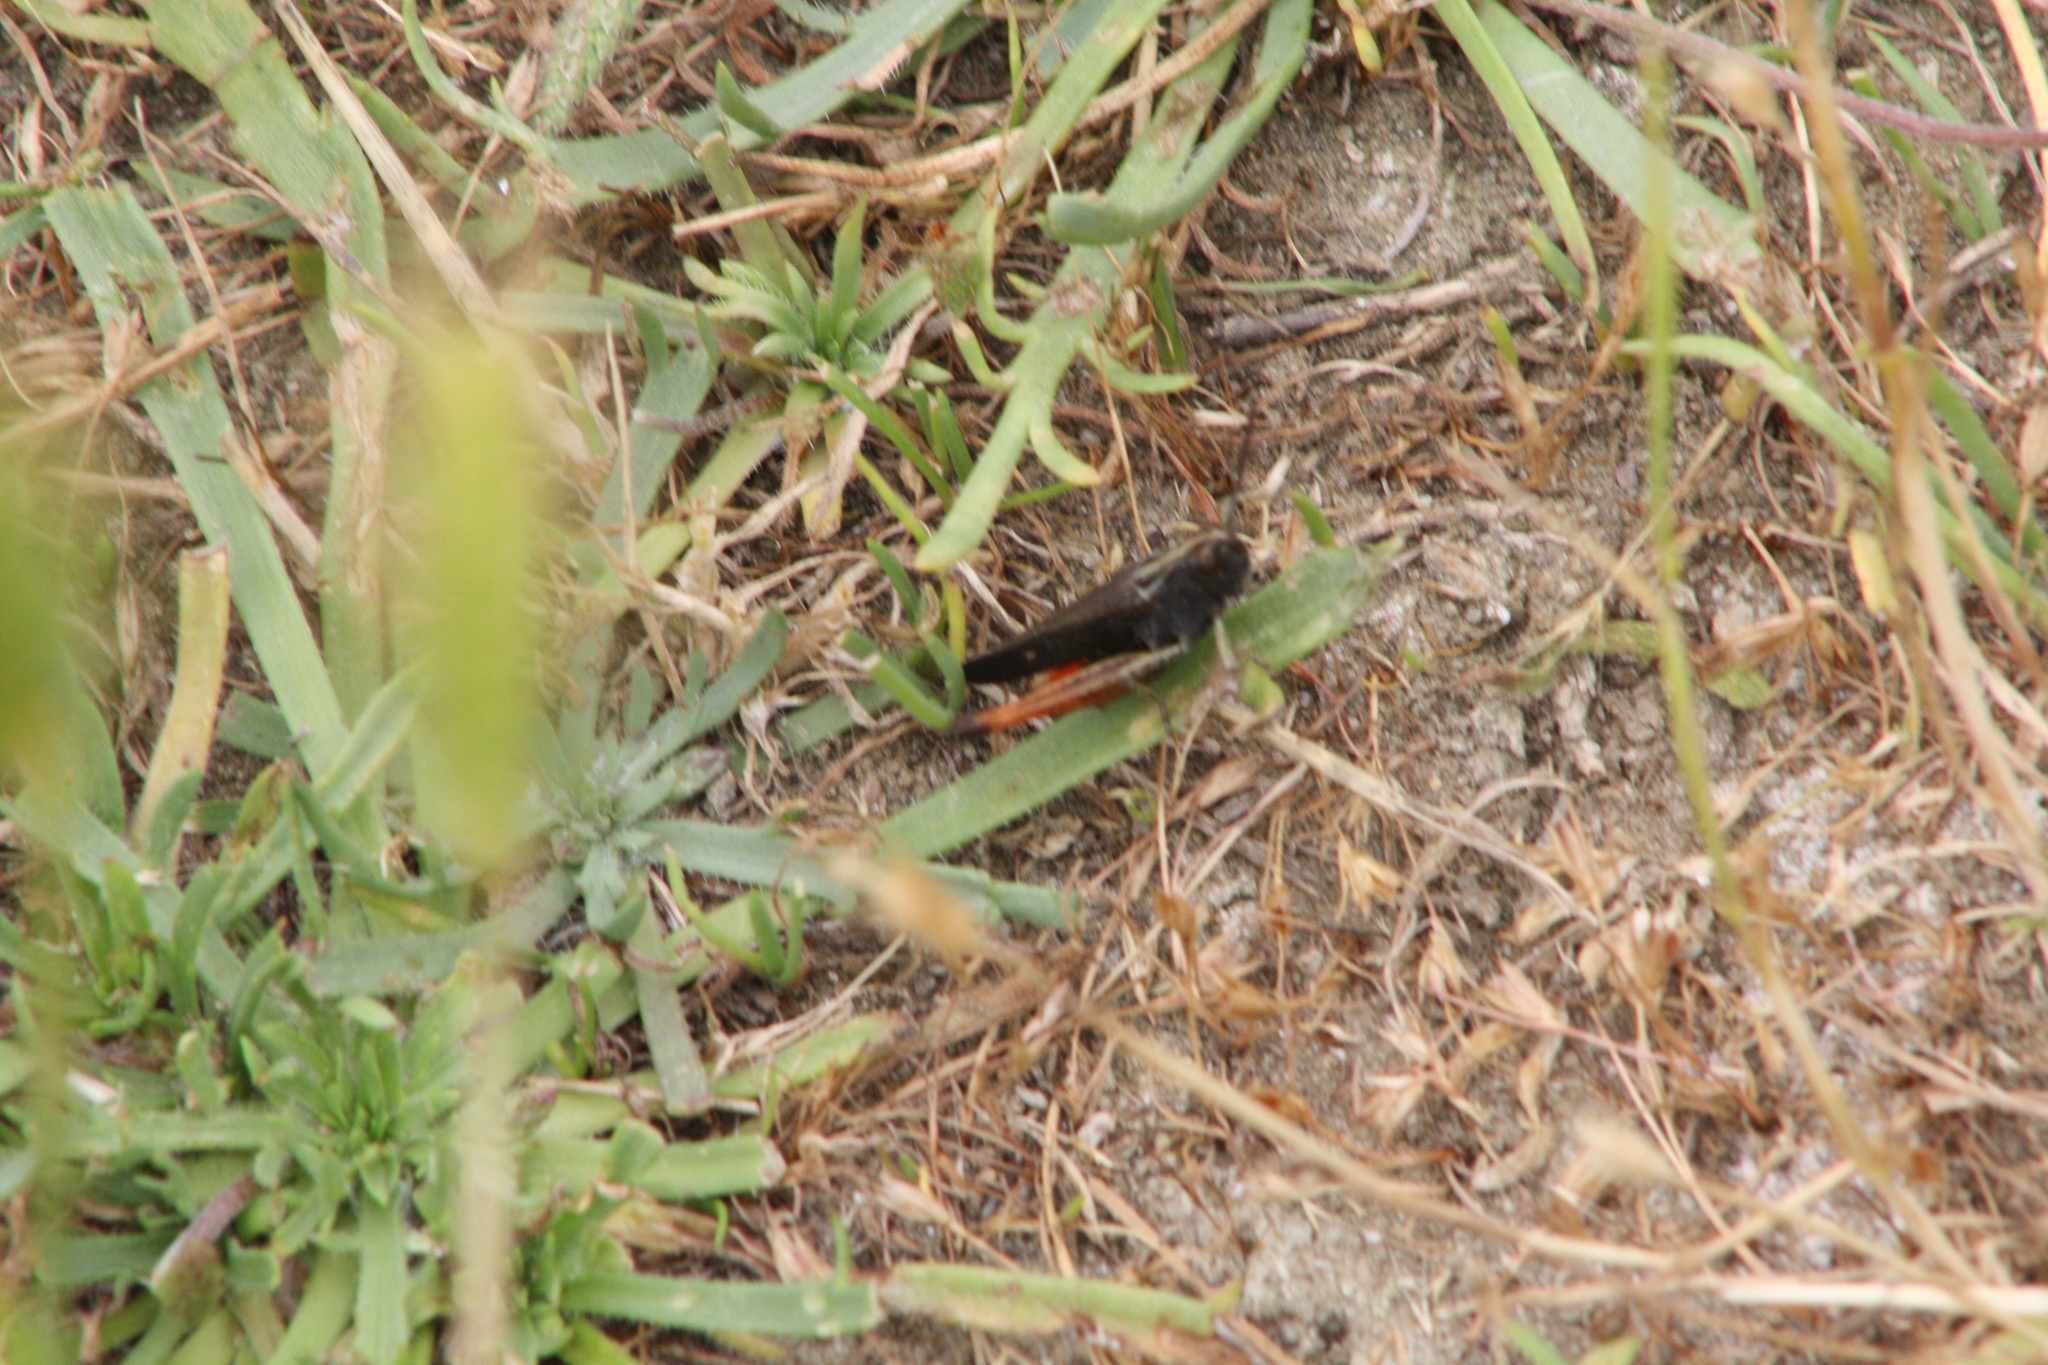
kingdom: Animalia
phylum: Arthropoda
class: Insecta
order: Orthoptera
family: Acrididae
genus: Omocestus
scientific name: Omocestus rufipes
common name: Woodland grasshopper
